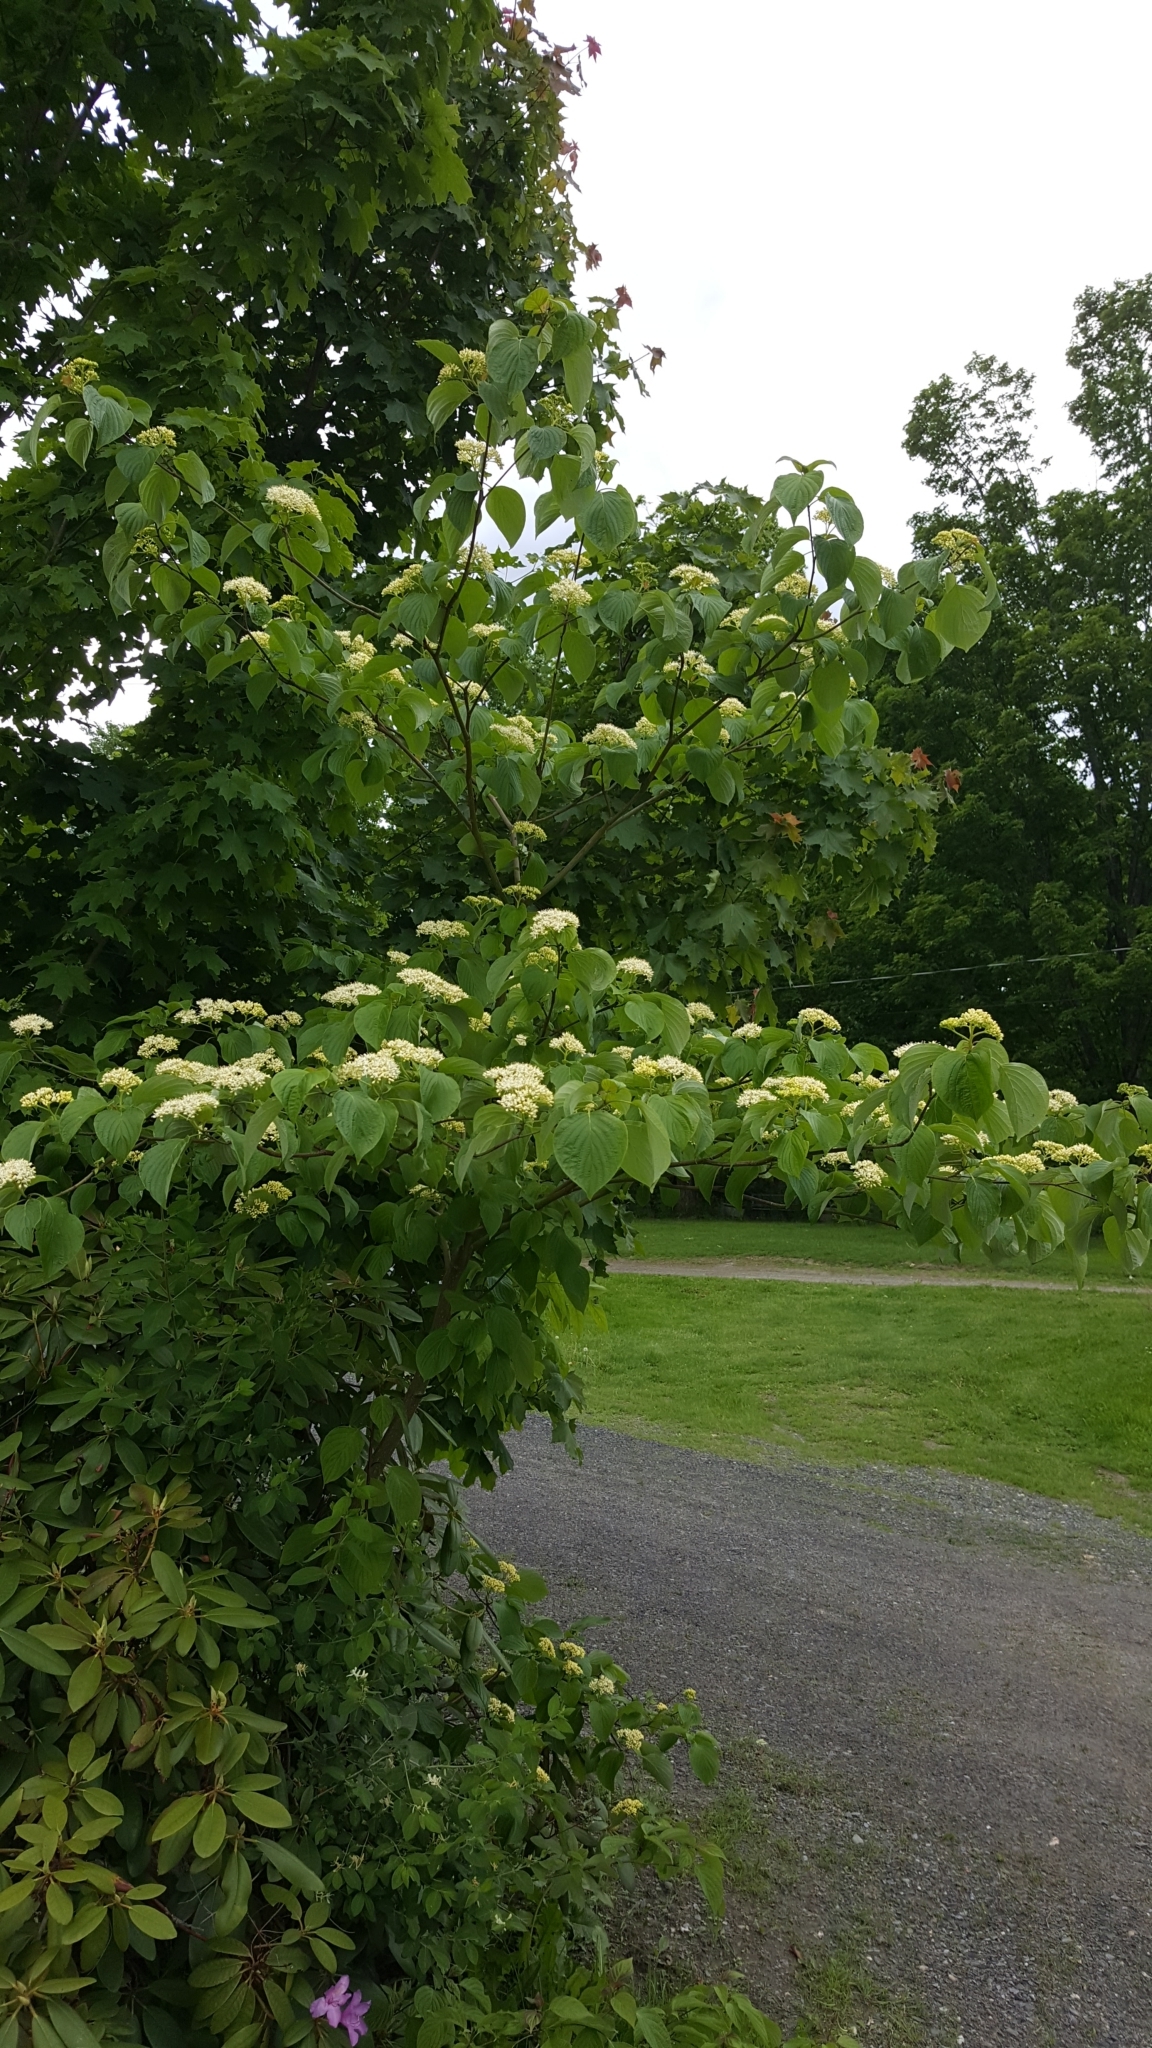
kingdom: Plantae
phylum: Tracheophyta
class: Magnoliopsida
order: Cornales
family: Cornaceae
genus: Cornus
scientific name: Cornus alternifolia
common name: Pagoda dogwood
